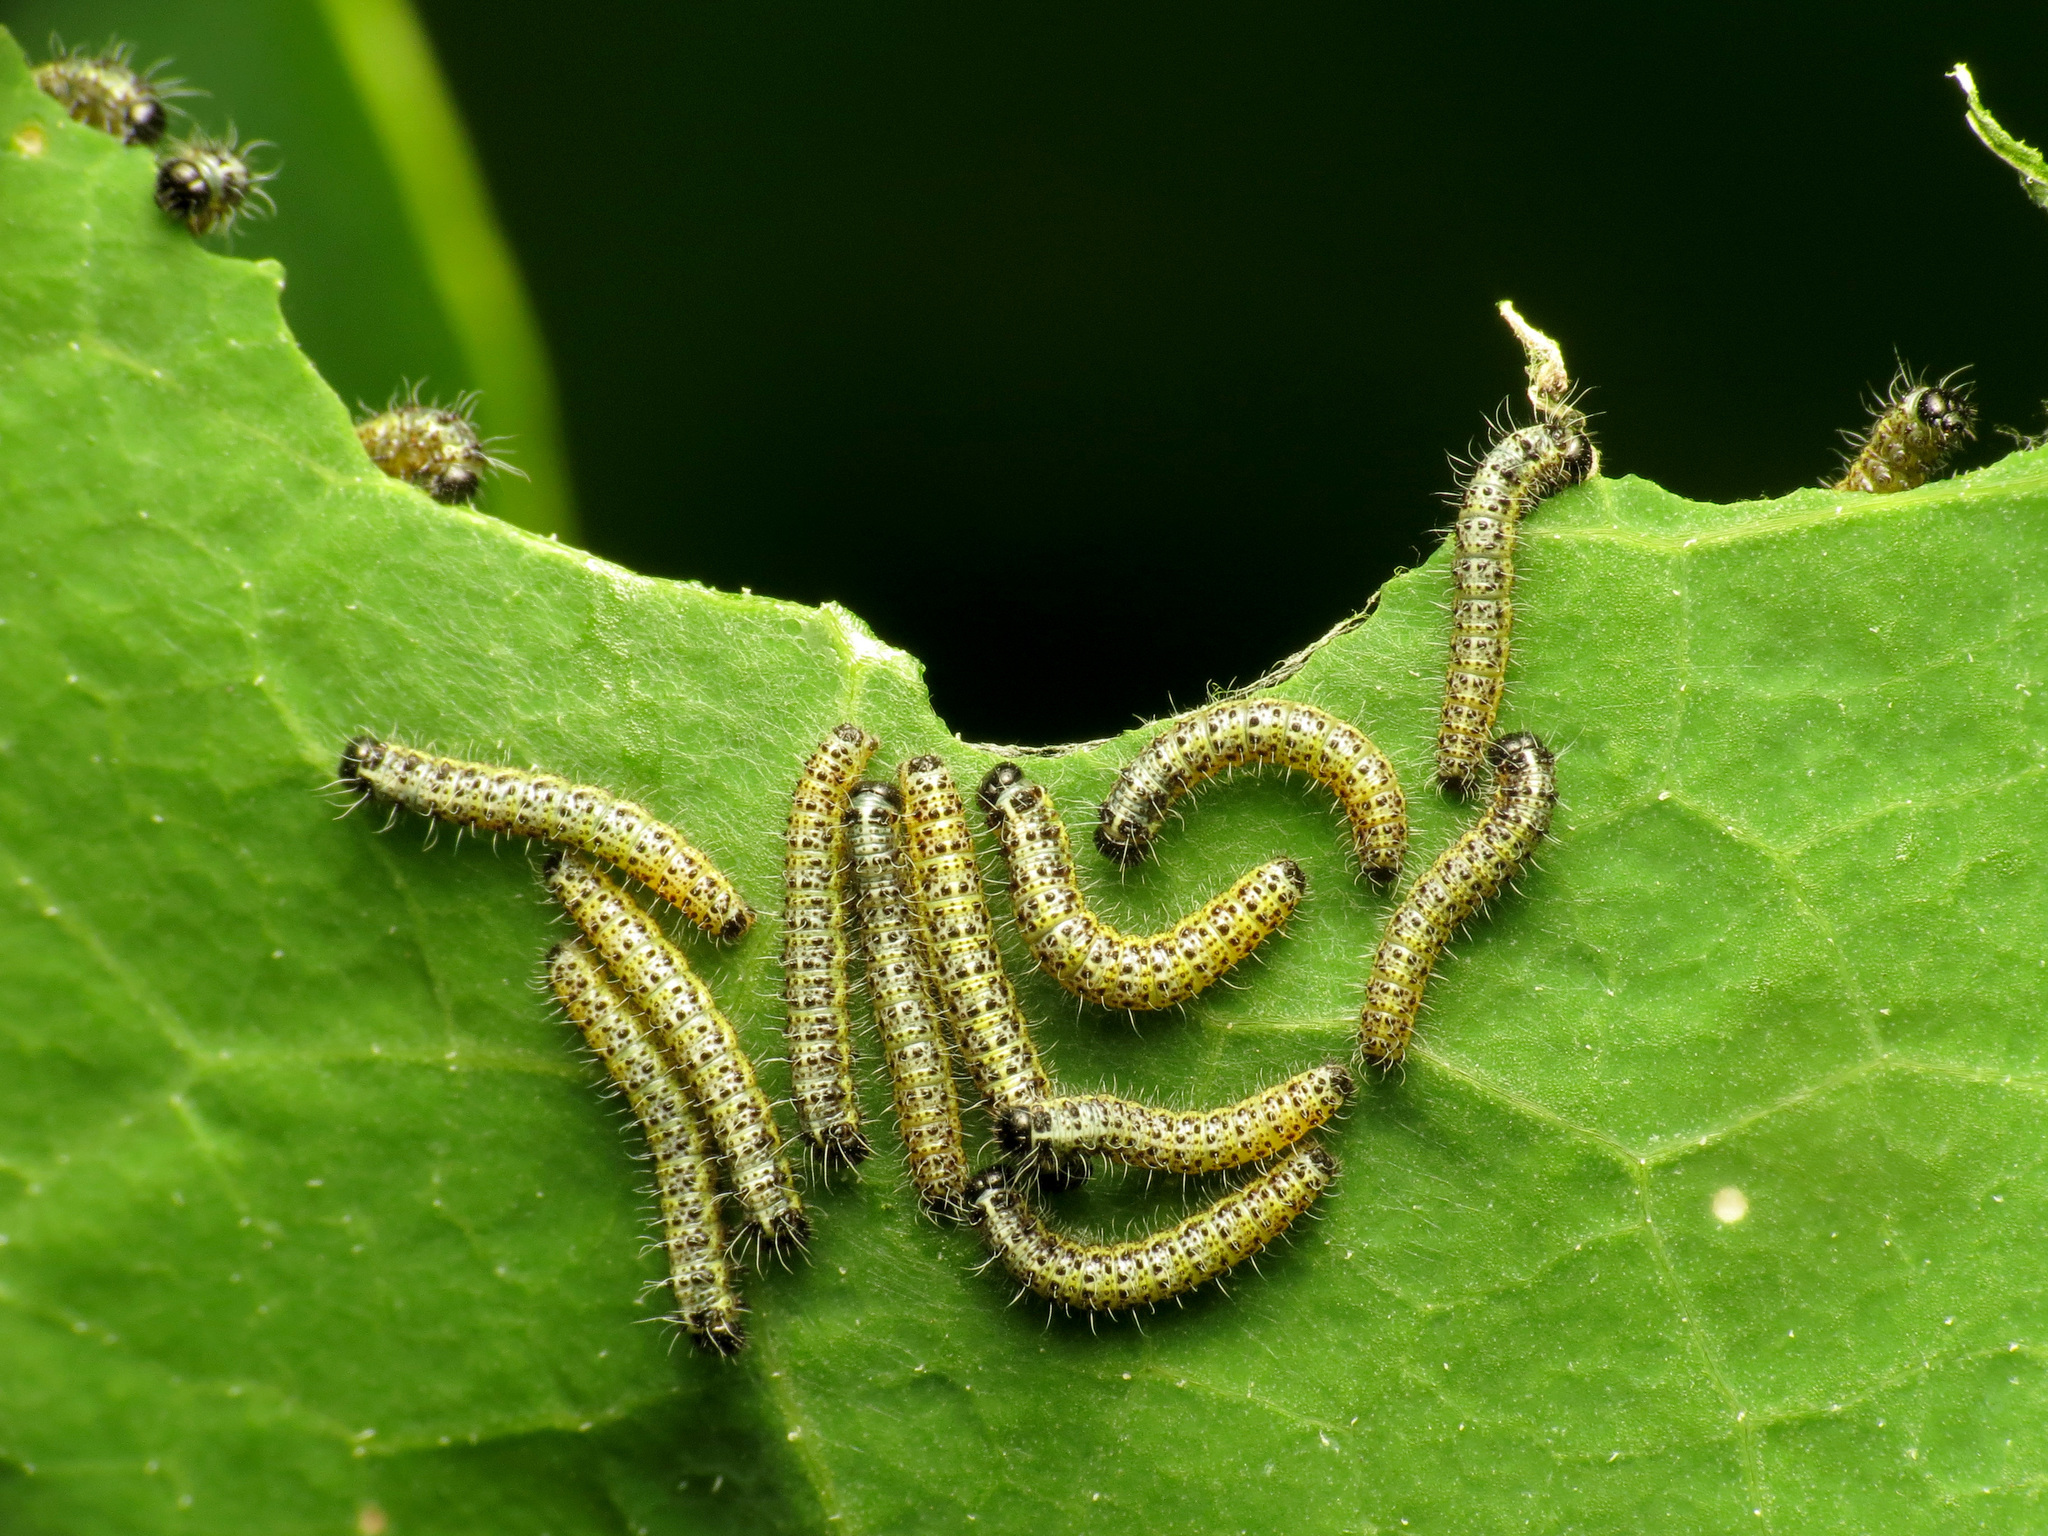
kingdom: Animalia
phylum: Arthropoda
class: Insecta
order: Lepidoptera
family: Pieridae
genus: Pieris
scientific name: Pieris brassicae
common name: Large white
